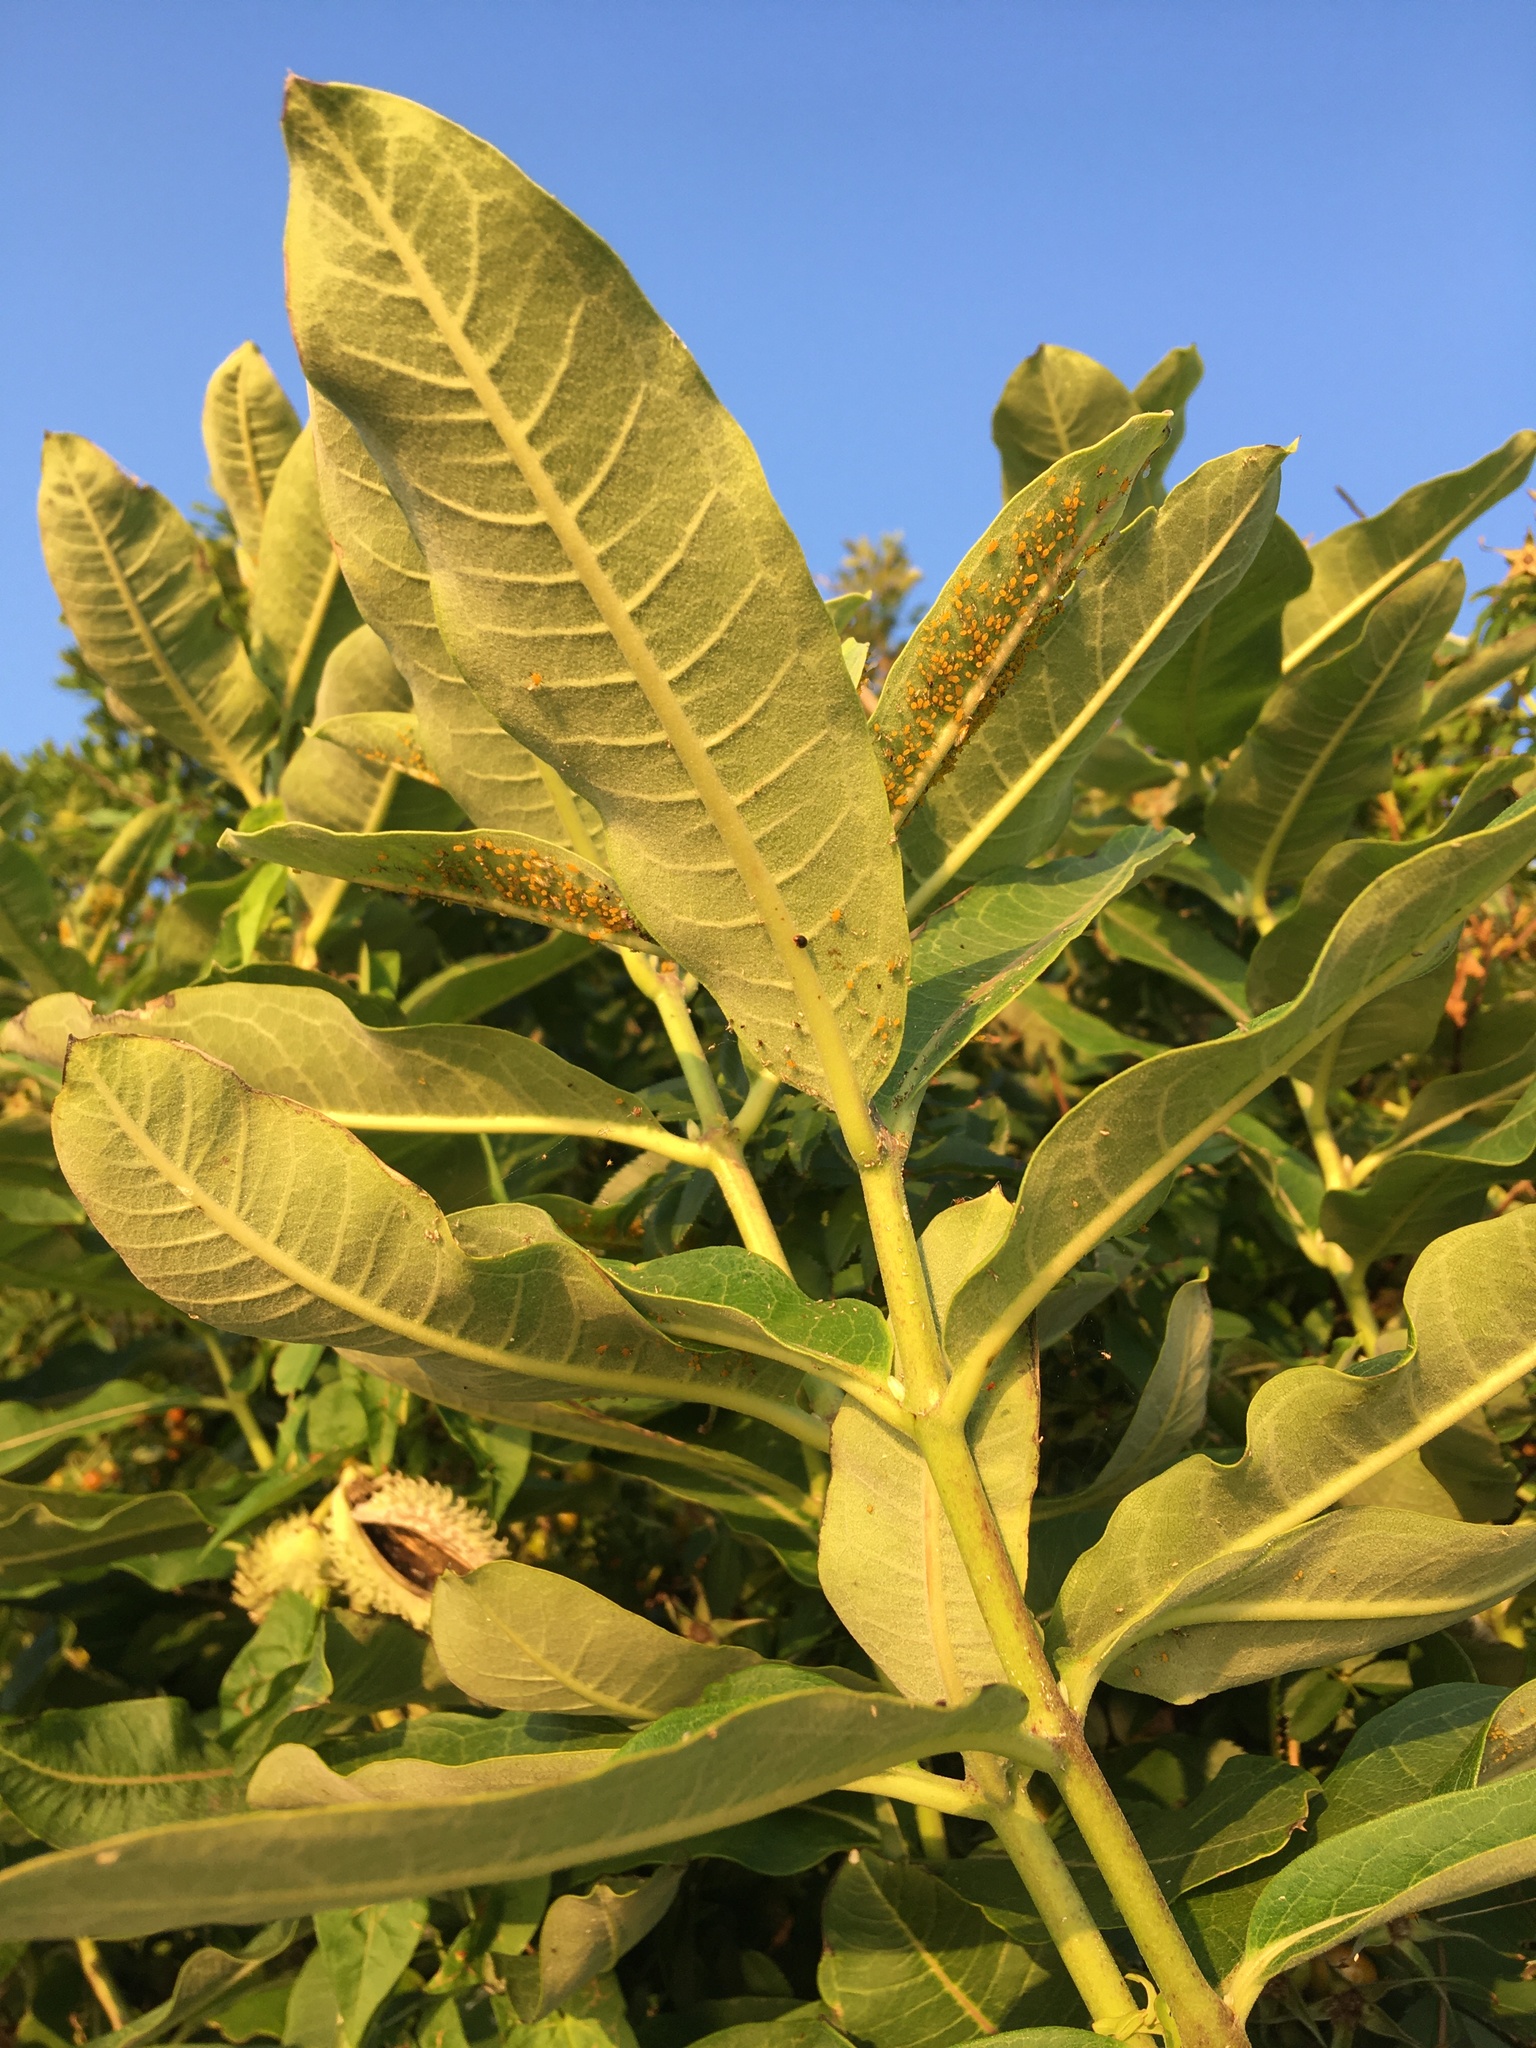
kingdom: Plantae
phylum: Tracheophyta
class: Magnoliopsida
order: Gentianales
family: Apocynaceae
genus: Asclepias
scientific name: Asclepias syriaca
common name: Common milkweed
